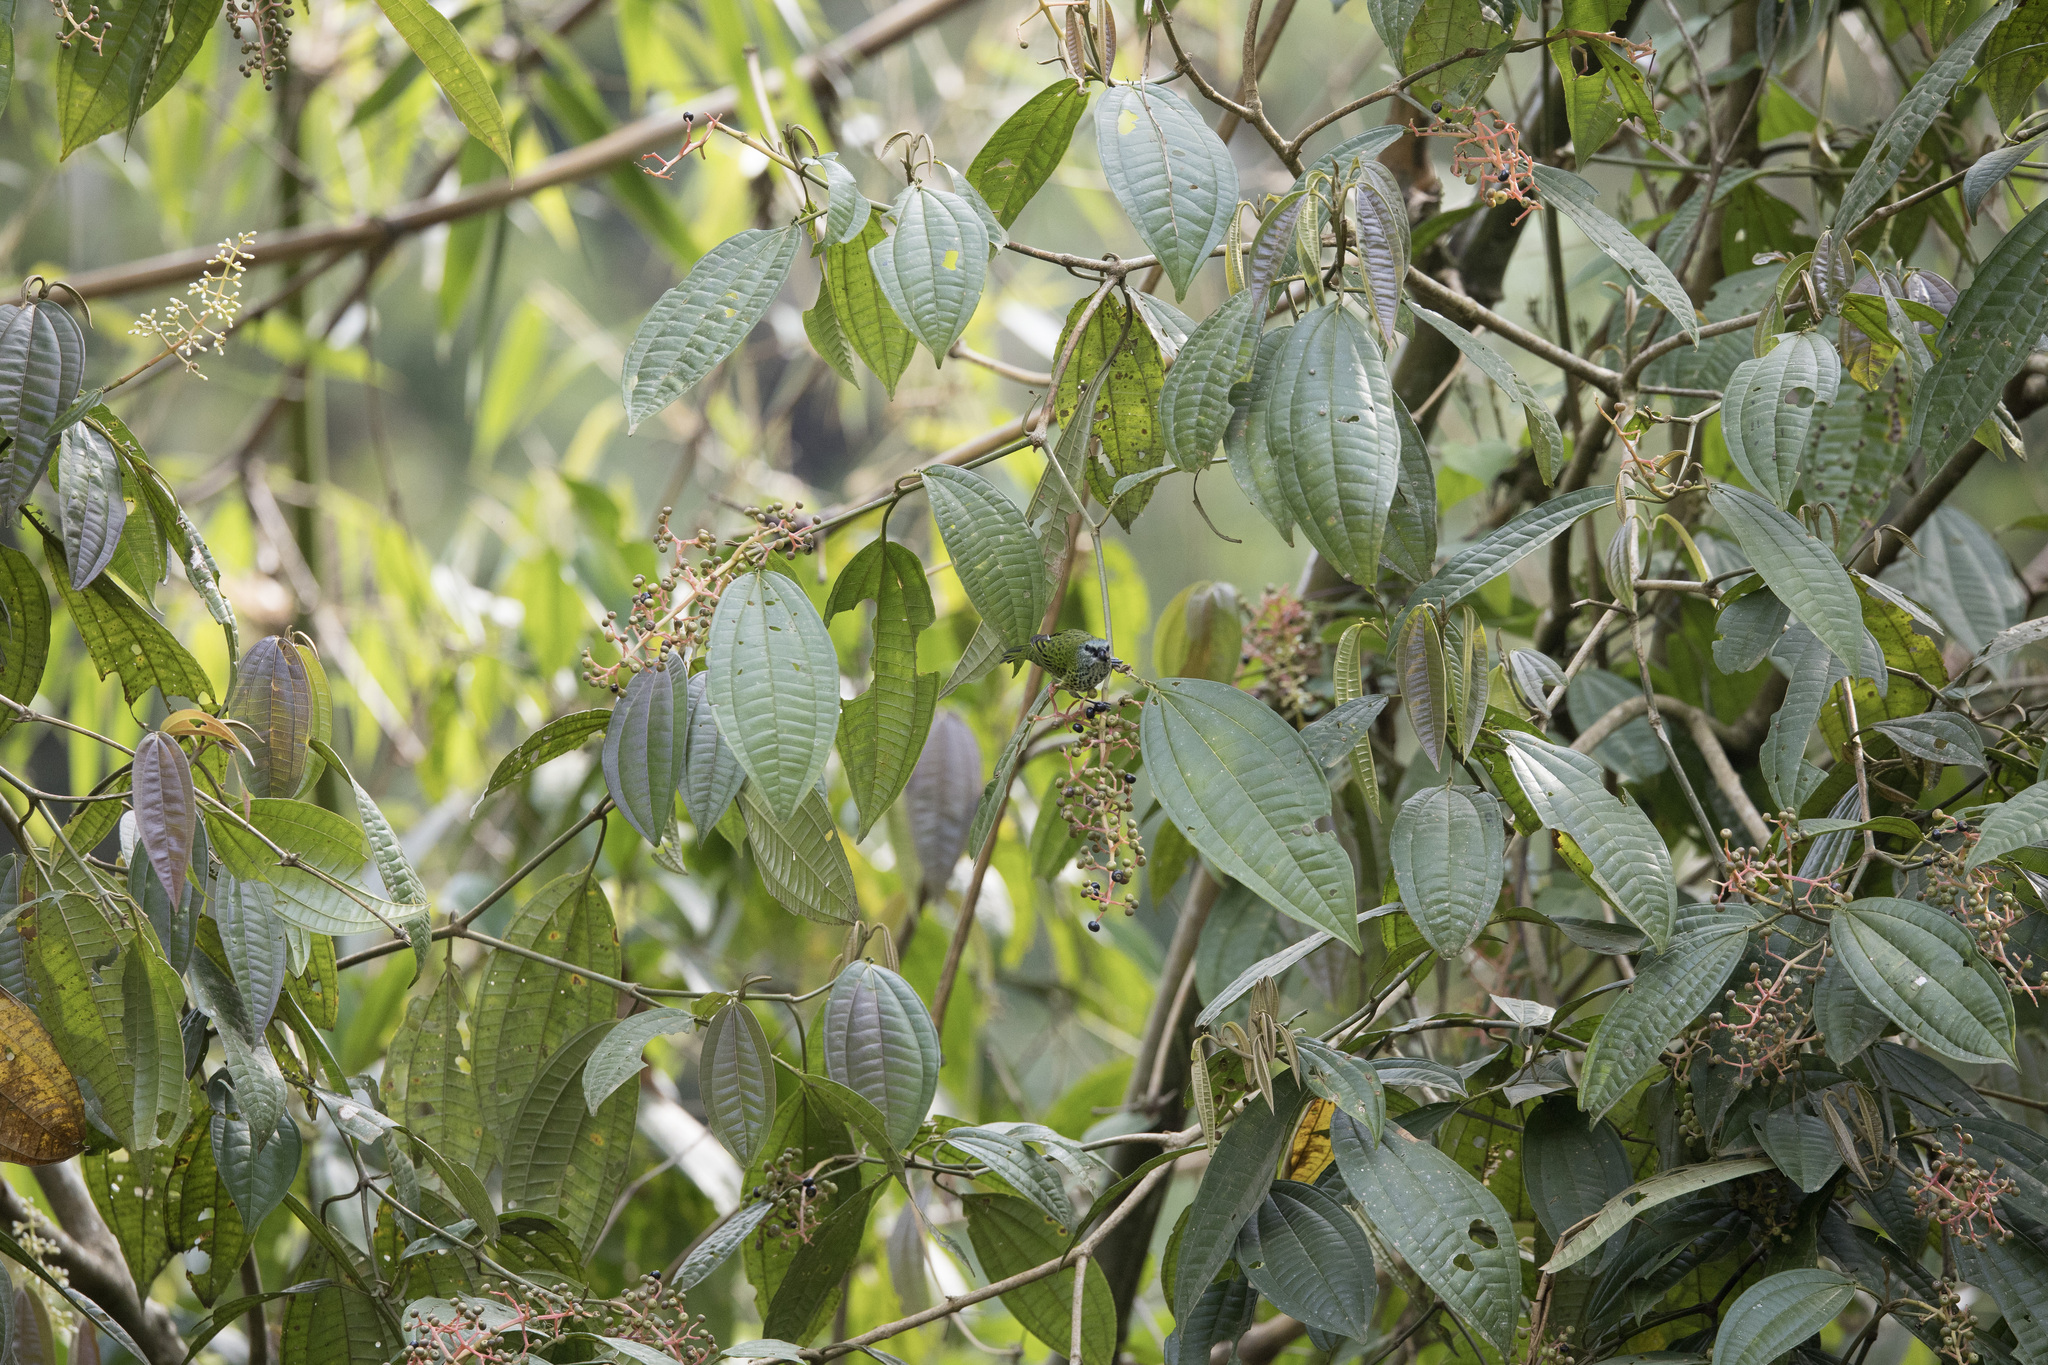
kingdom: Animalia
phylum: Chordata
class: Aves
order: Passeriformes
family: Thraupidae
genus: Ixothraupis
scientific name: Ixothraupis punctata
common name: Spotted tanager
